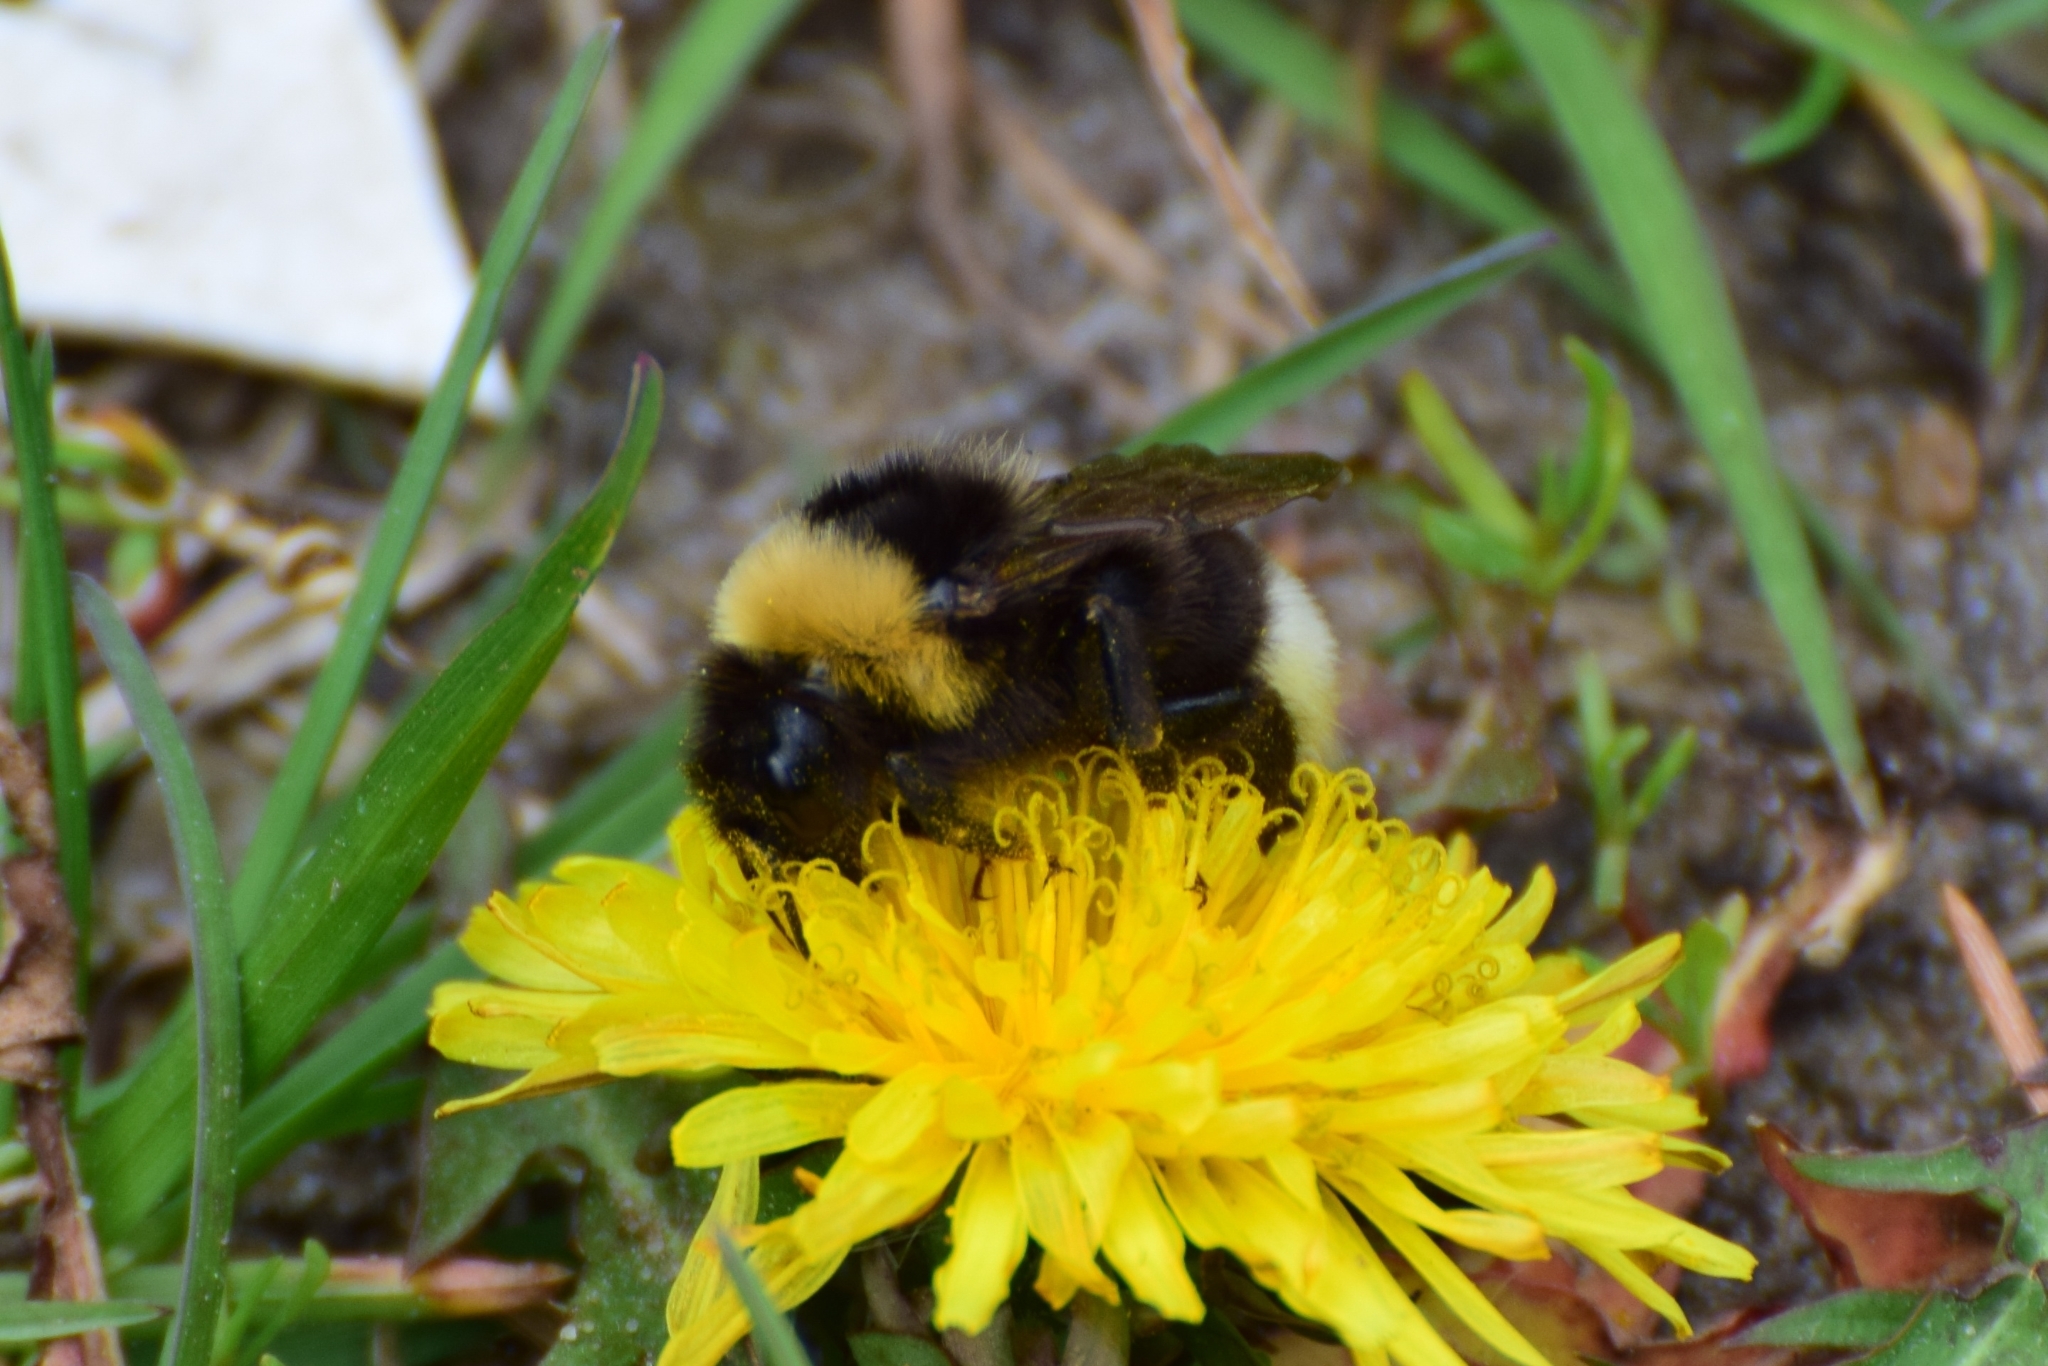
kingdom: Animalia
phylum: Arthropoda
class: Insecta
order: Hymenoptera
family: Apidae
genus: Bombus
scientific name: Bombus bohemicus
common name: Gypsy cuckoo bee
